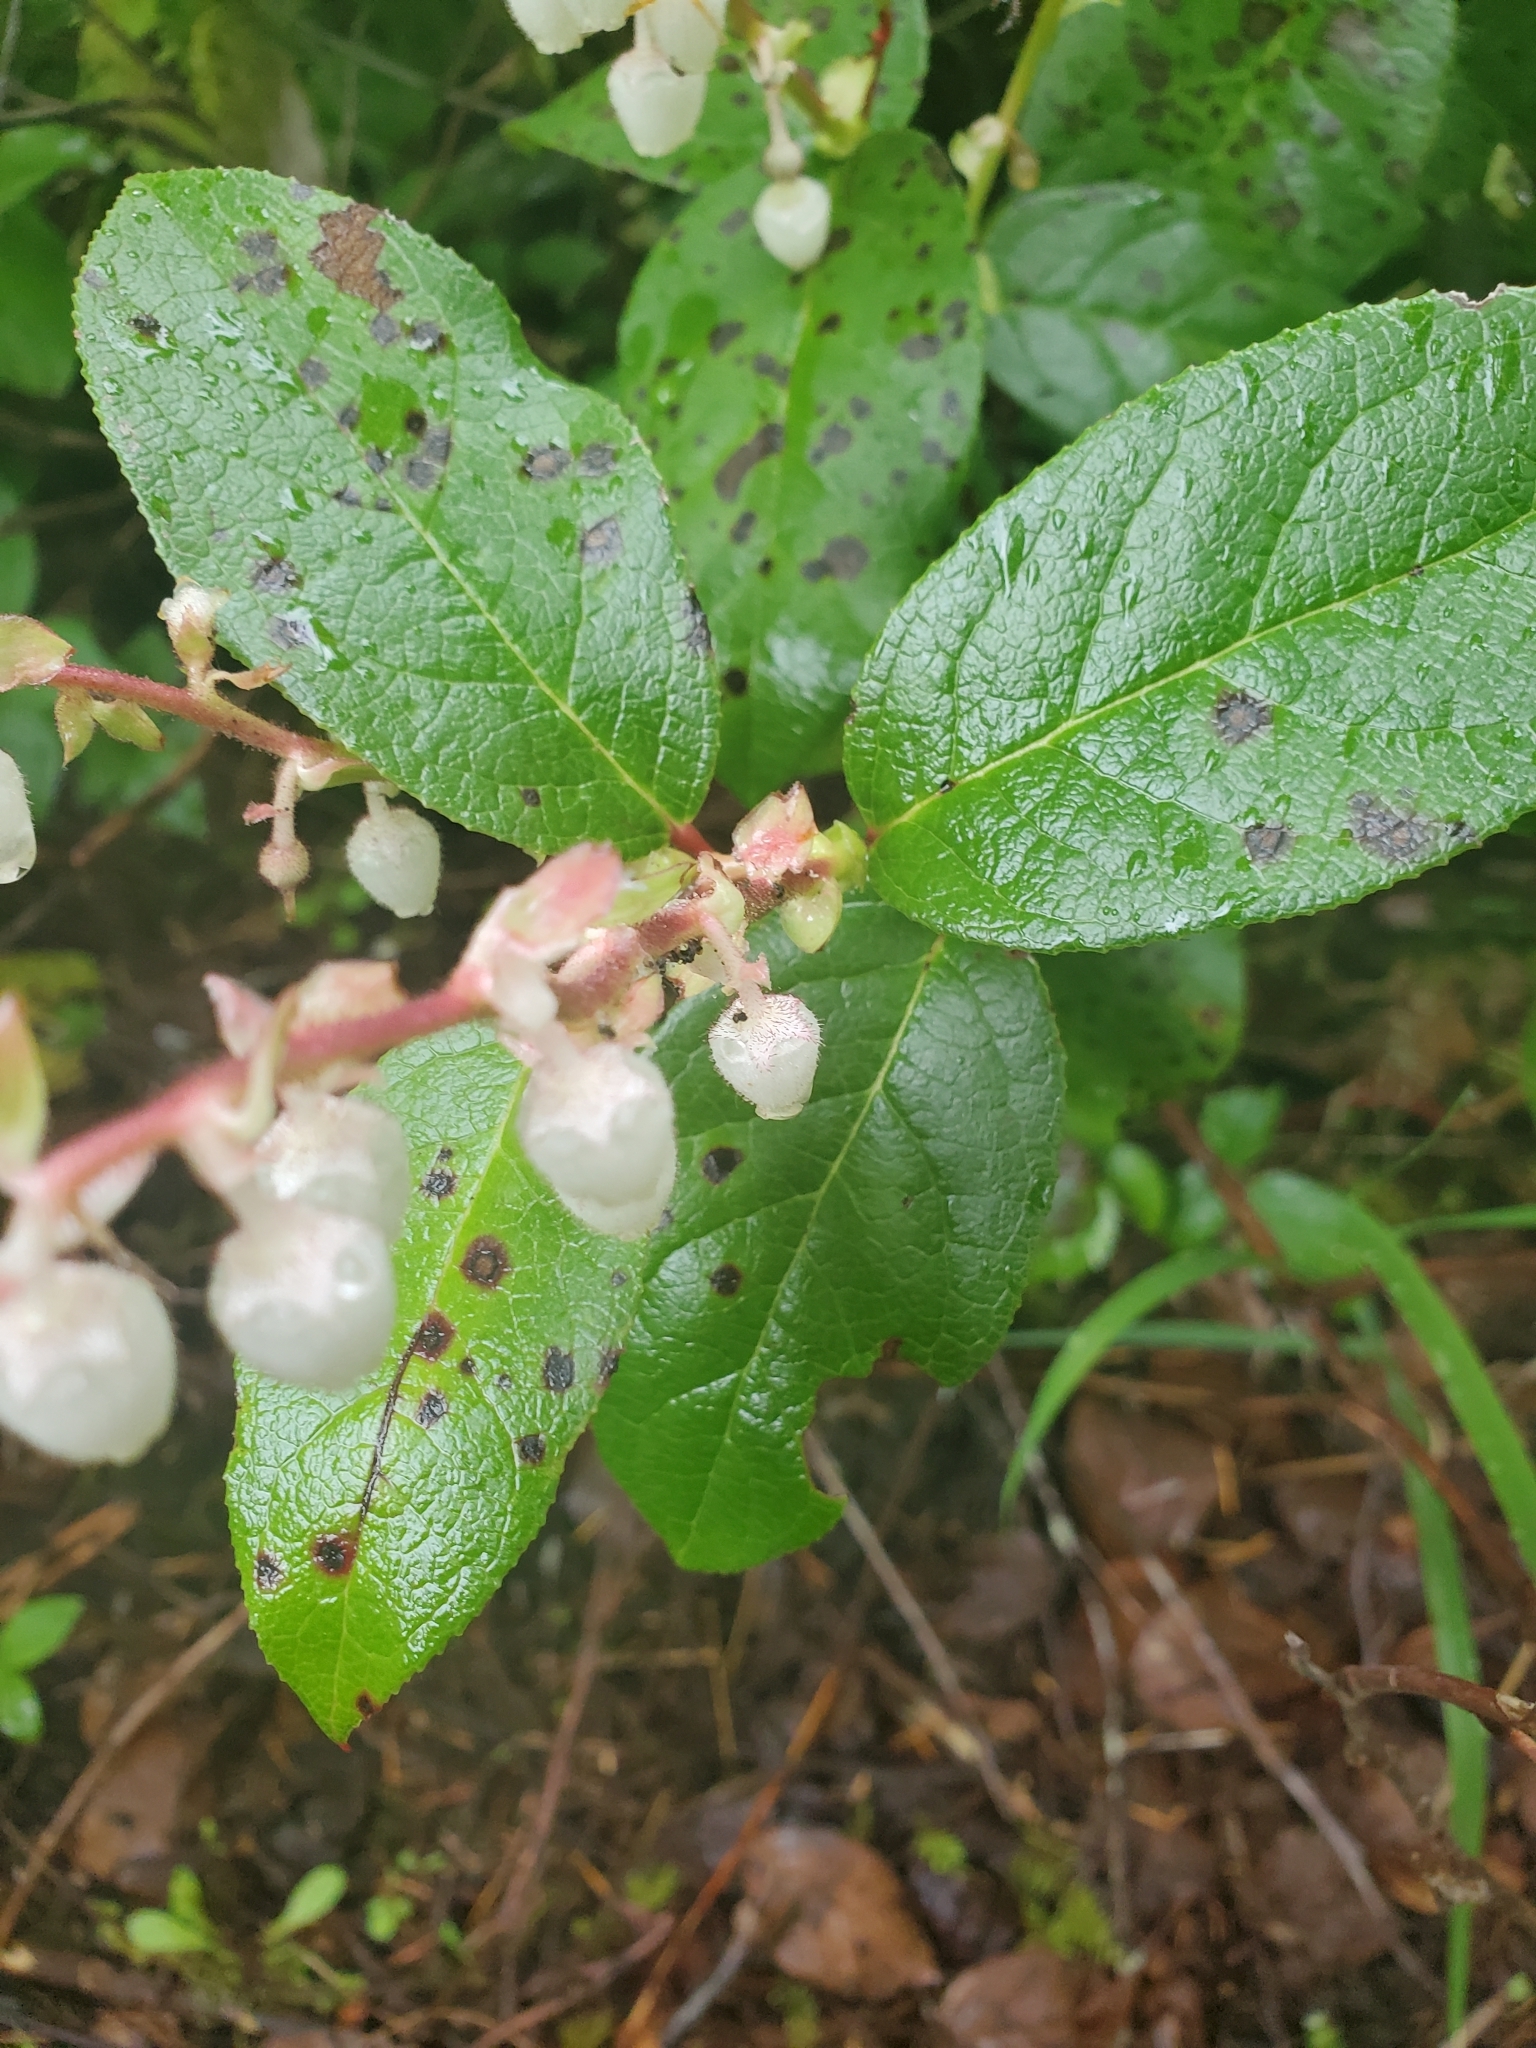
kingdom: Plantae
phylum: Tracheophyta
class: Magnoliopsida
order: Ericales
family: Ericaceae
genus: Gaultheria
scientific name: Gaultheria shallon
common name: Shallon
